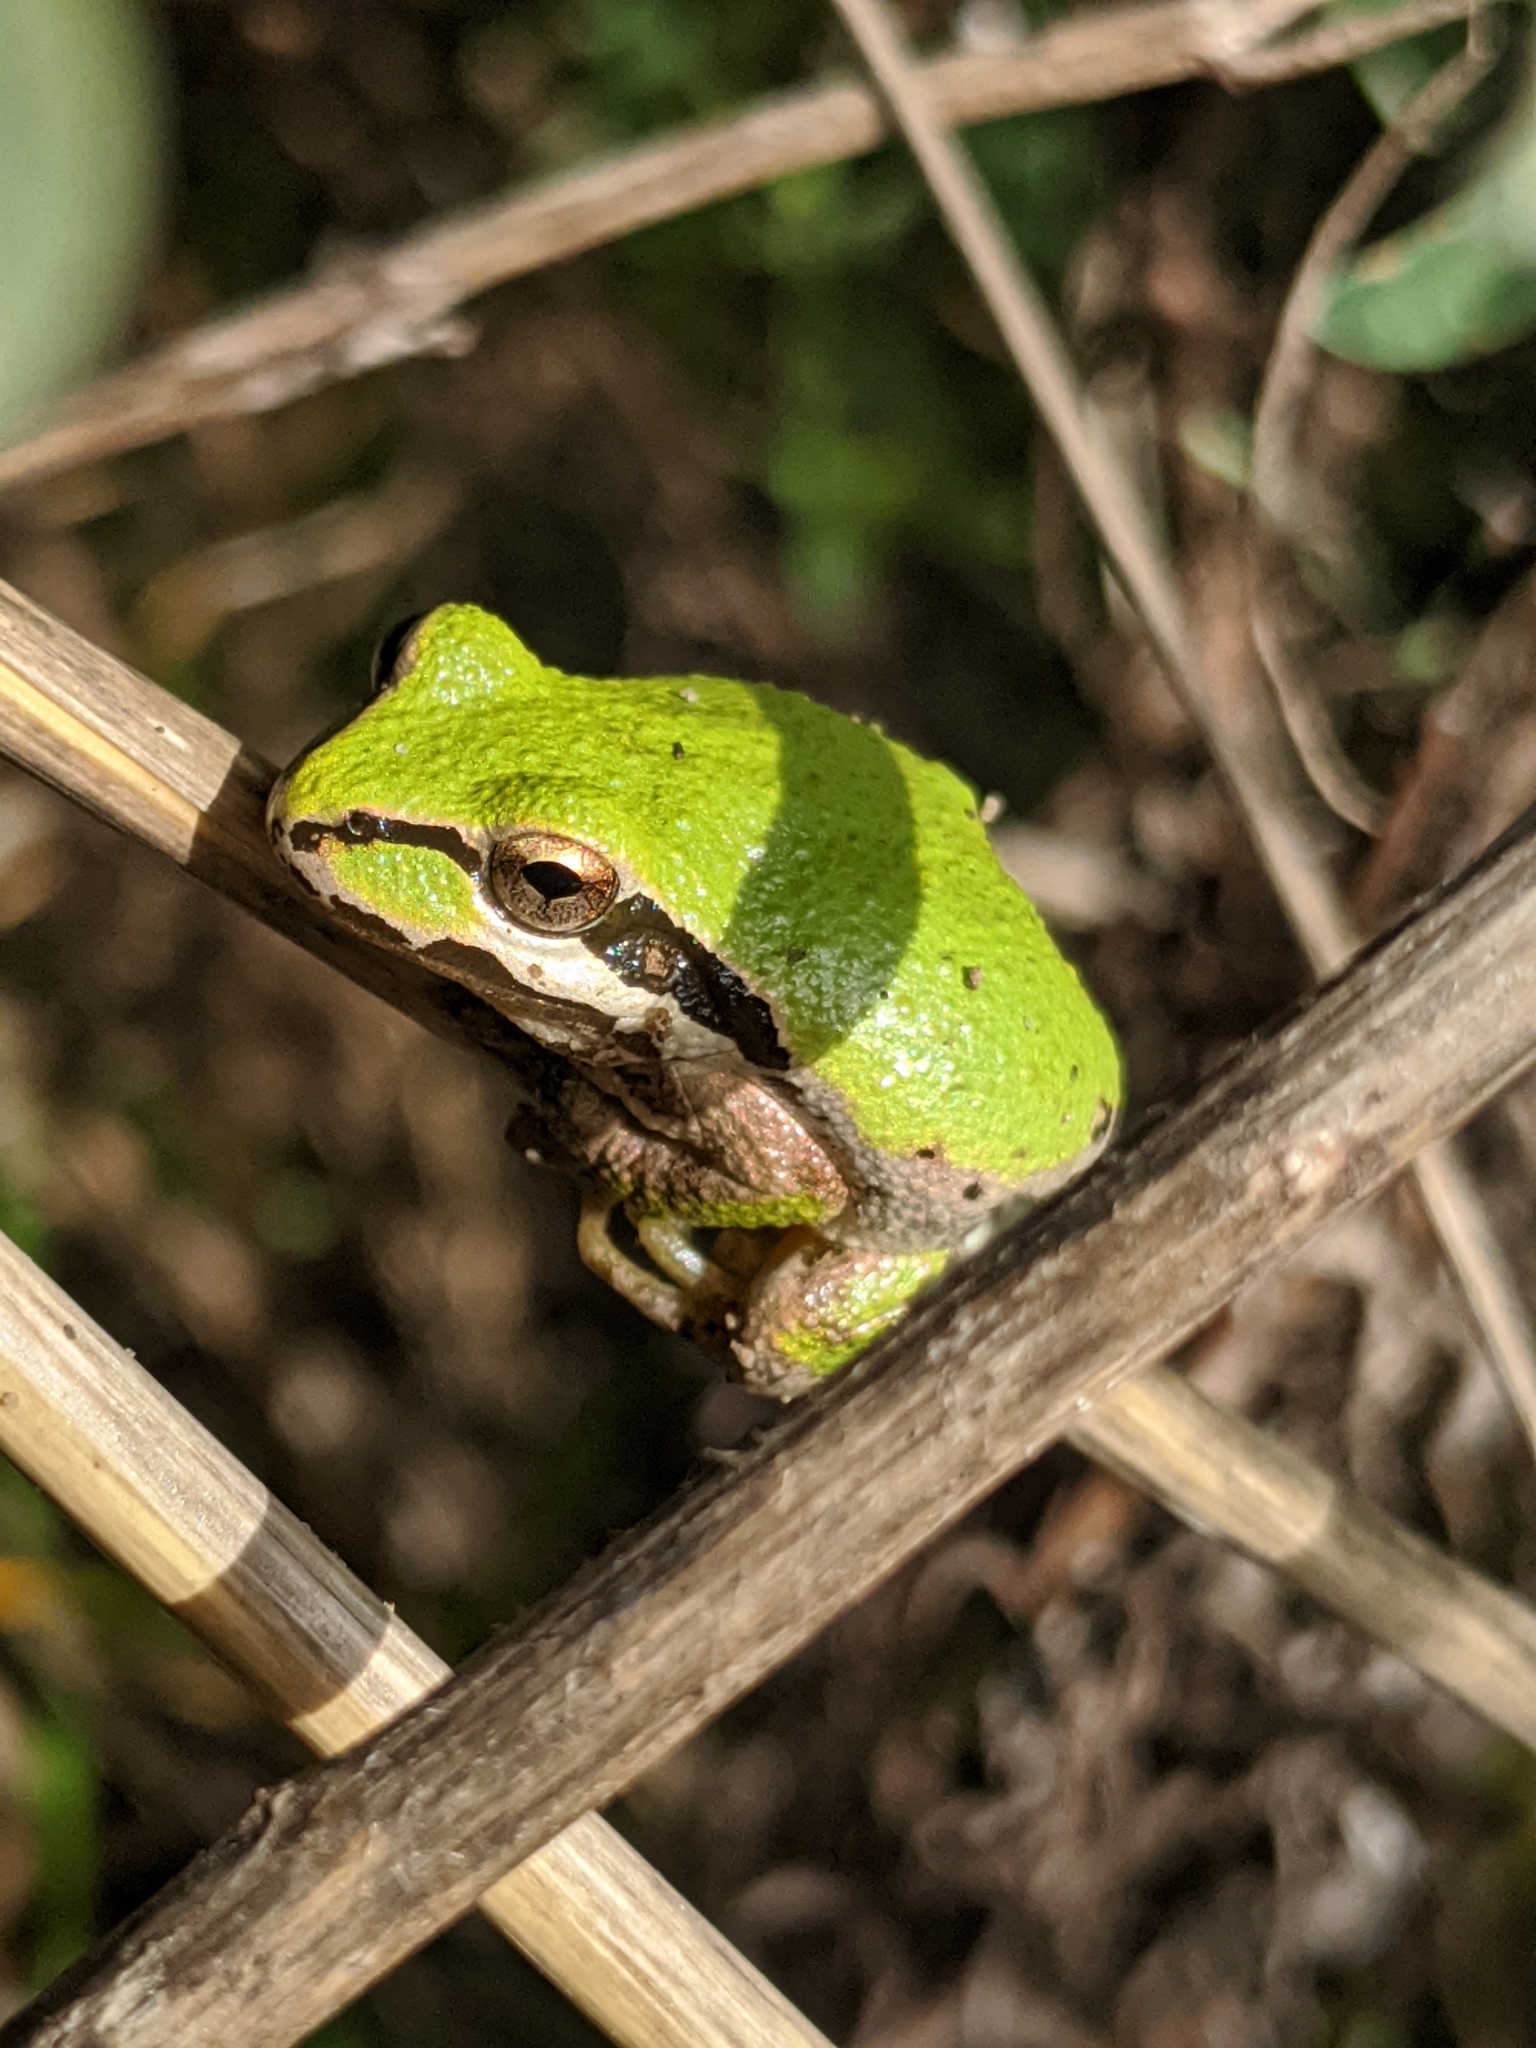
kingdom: Animalia
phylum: Chordata
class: Amphibia
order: Anura
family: Hylidae
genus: Pseudacris
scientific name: Pseudacris regilla
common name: Pacific chorus frog
